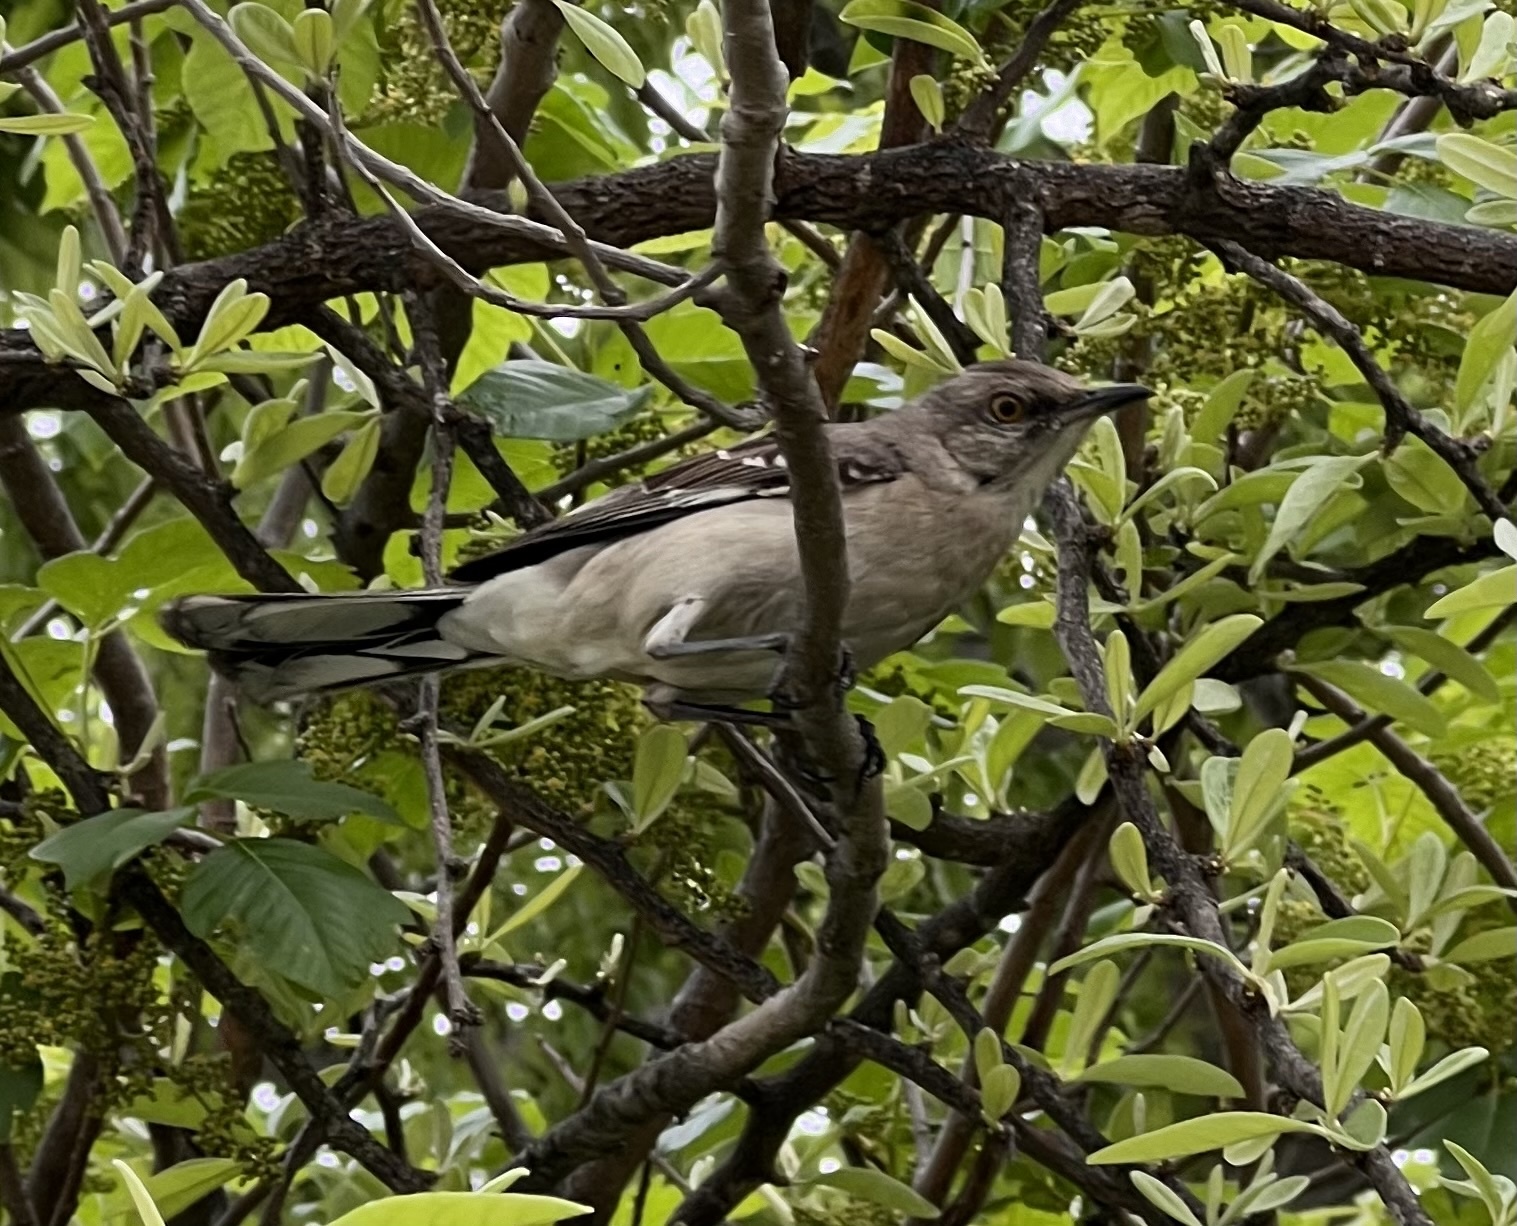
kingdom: Animalia
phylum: Chordata
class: Aves
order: Passeriformes
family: Mimidae
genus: Mimus
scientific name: Mimus polyglottos
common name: Northern mockingbird
